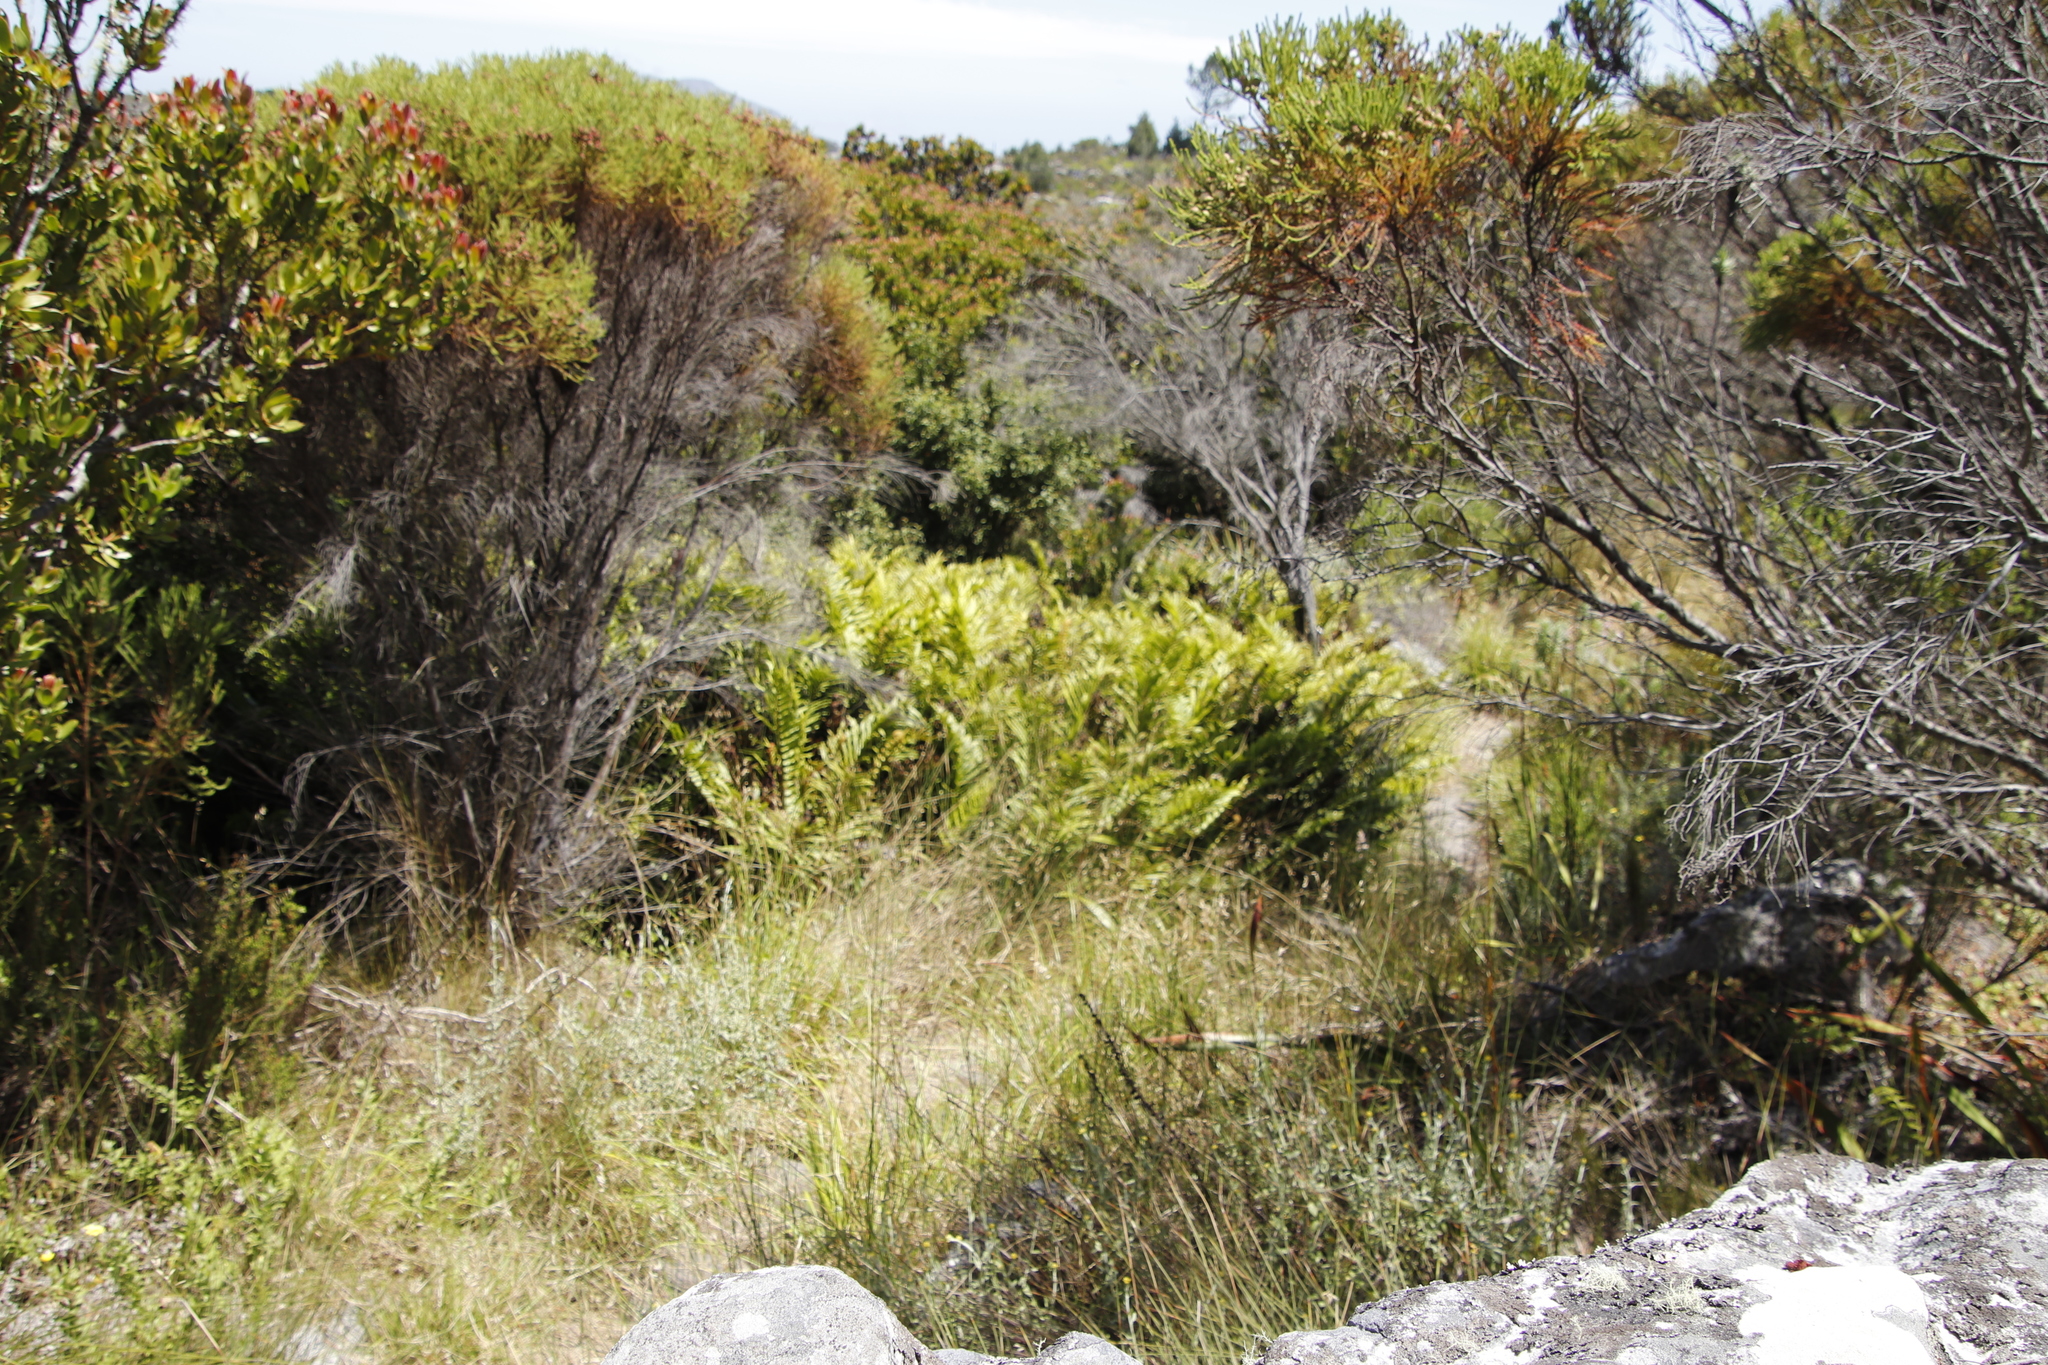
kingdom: Plantae
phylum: Tracheophyta
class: Polypodiopsida
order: Polypodiales
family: Blechnaceae
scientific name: Blechnaceae
